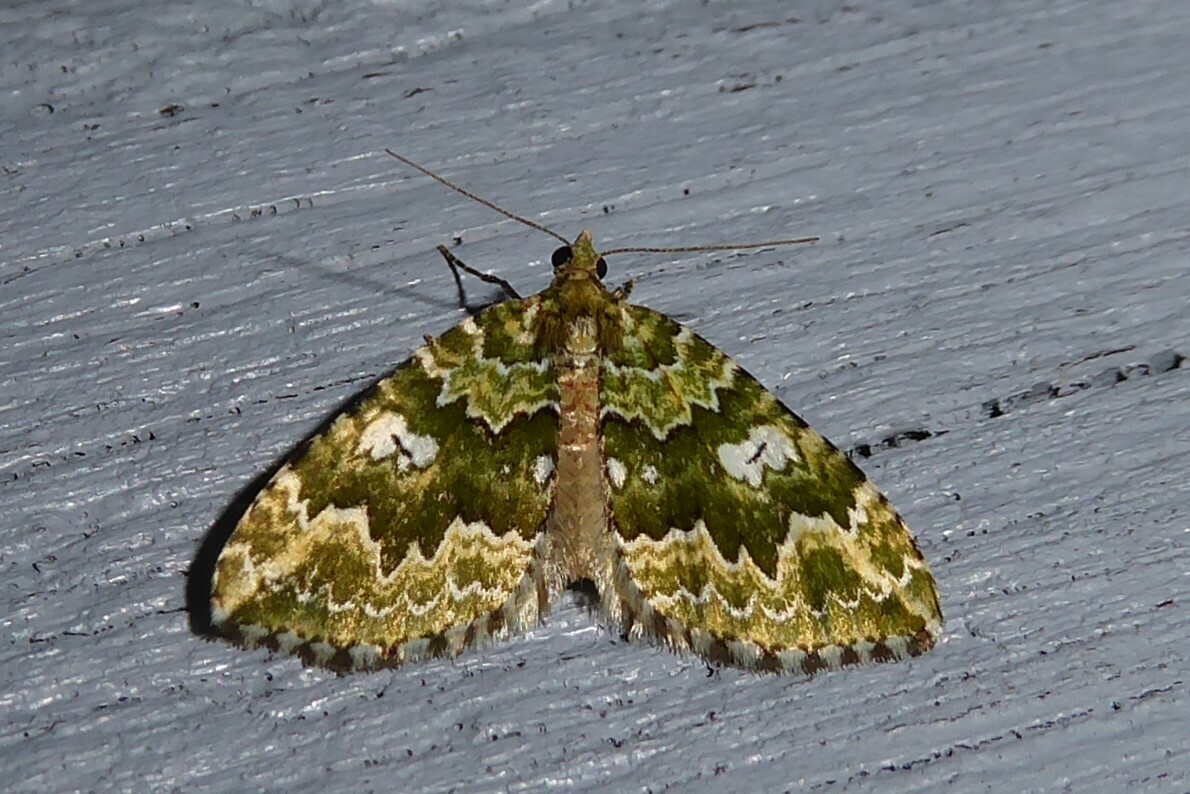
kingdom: Animalia
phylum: Arthropoda
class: Insecta
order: Lepidoptera
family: Geometridae
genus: Asaphodes
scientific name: Asaphodes beata
